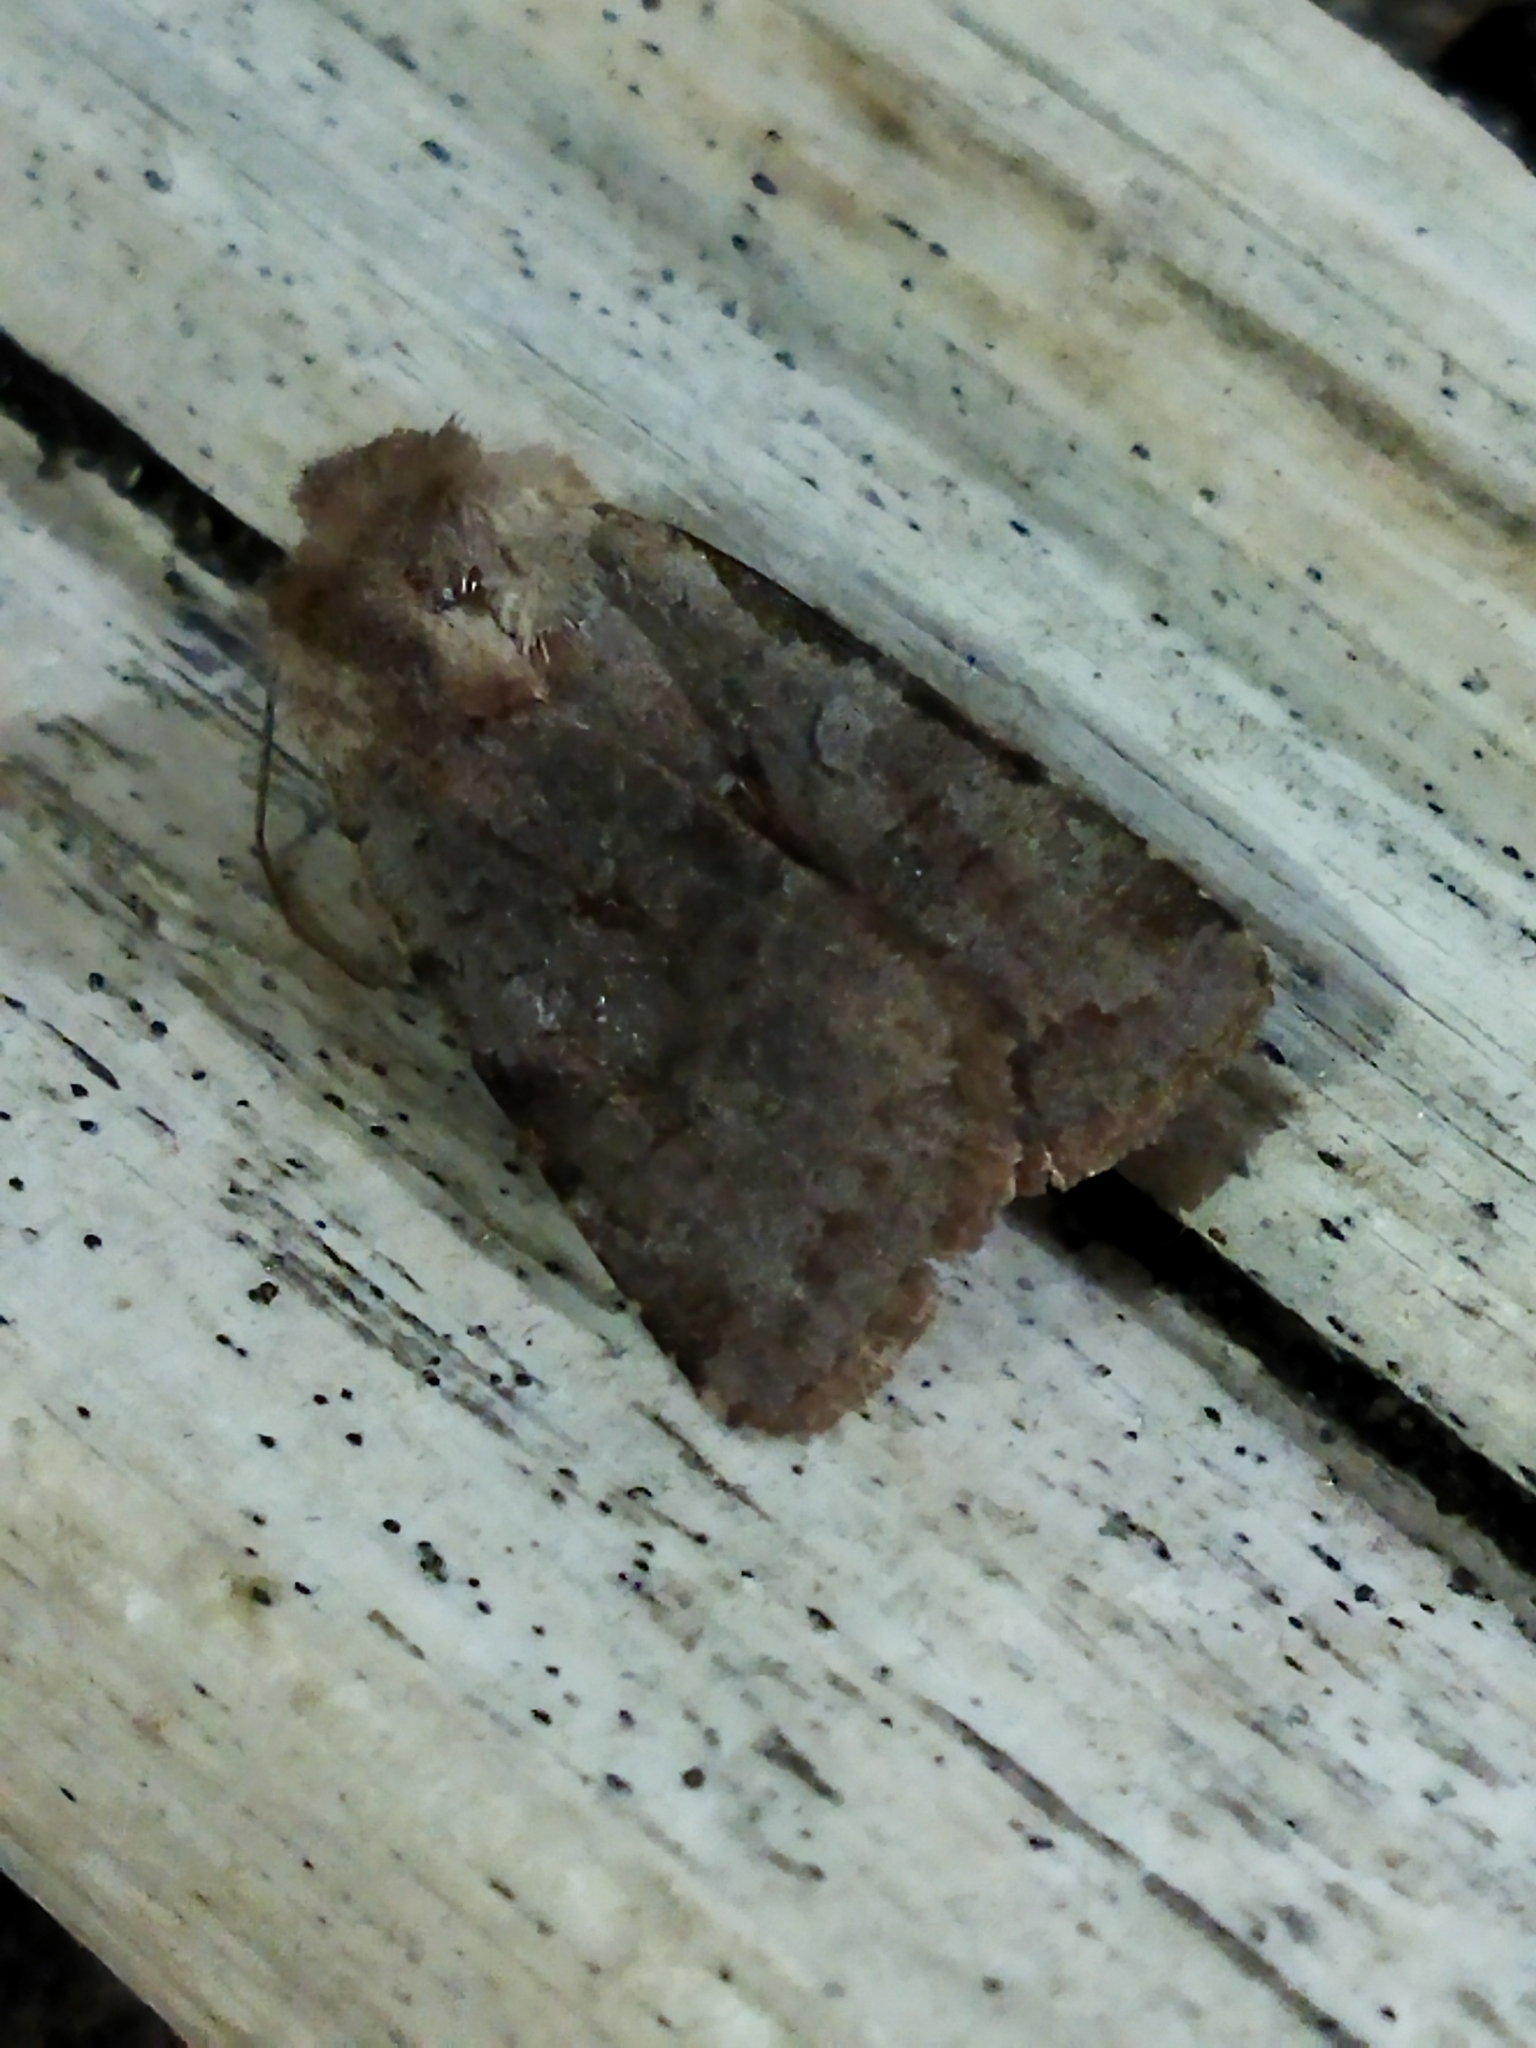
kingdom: Animalia
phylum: Arthropoda
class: Insecta
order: Lepidoptera
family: Noctuidae
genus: Cerastis
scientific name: Cerastis rubricosa
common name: Red chestnut
